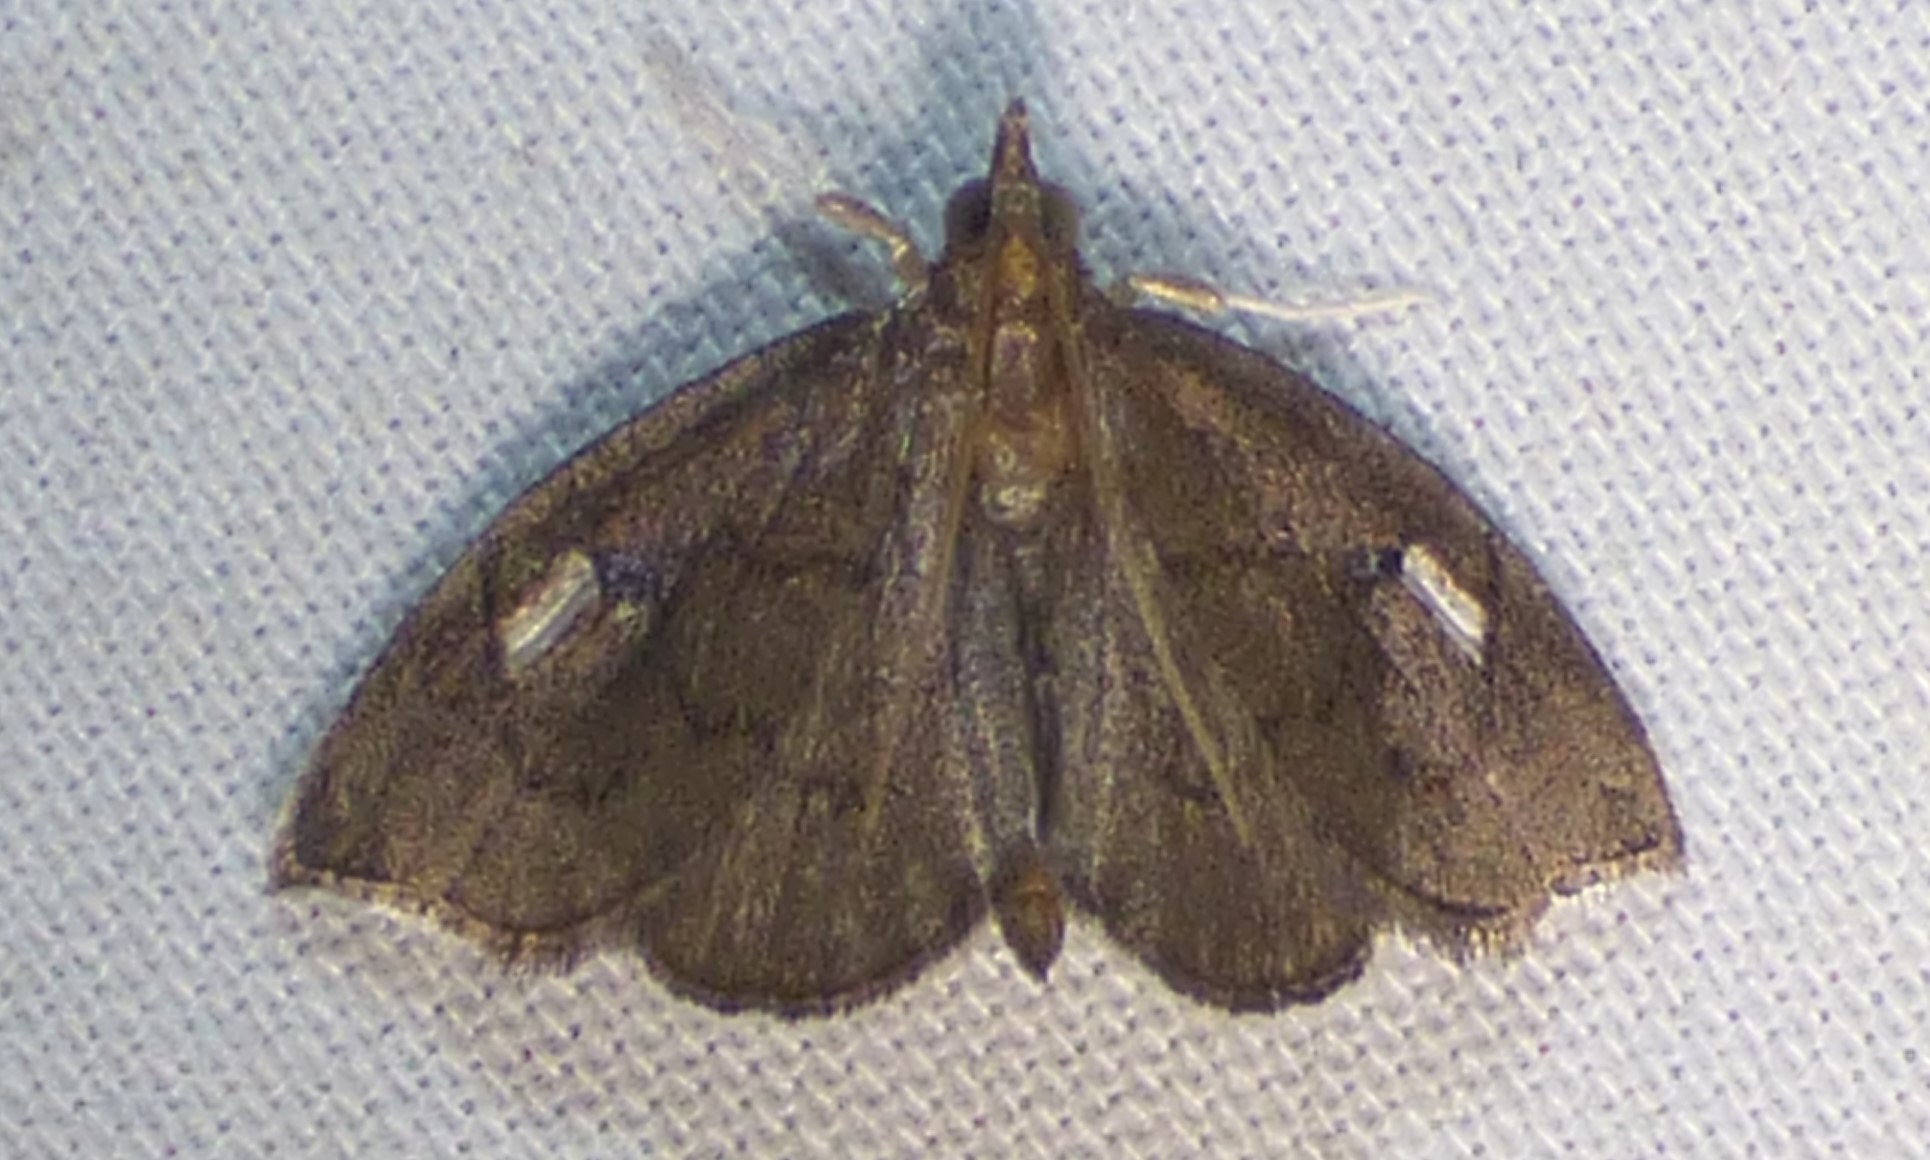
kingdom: Animalia
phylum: Arthropoda
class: Insecta
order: Lepidoptera
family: Crambidae
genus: Perispasta
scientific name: Perispasta caeculalis
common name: Titian peale's moth
